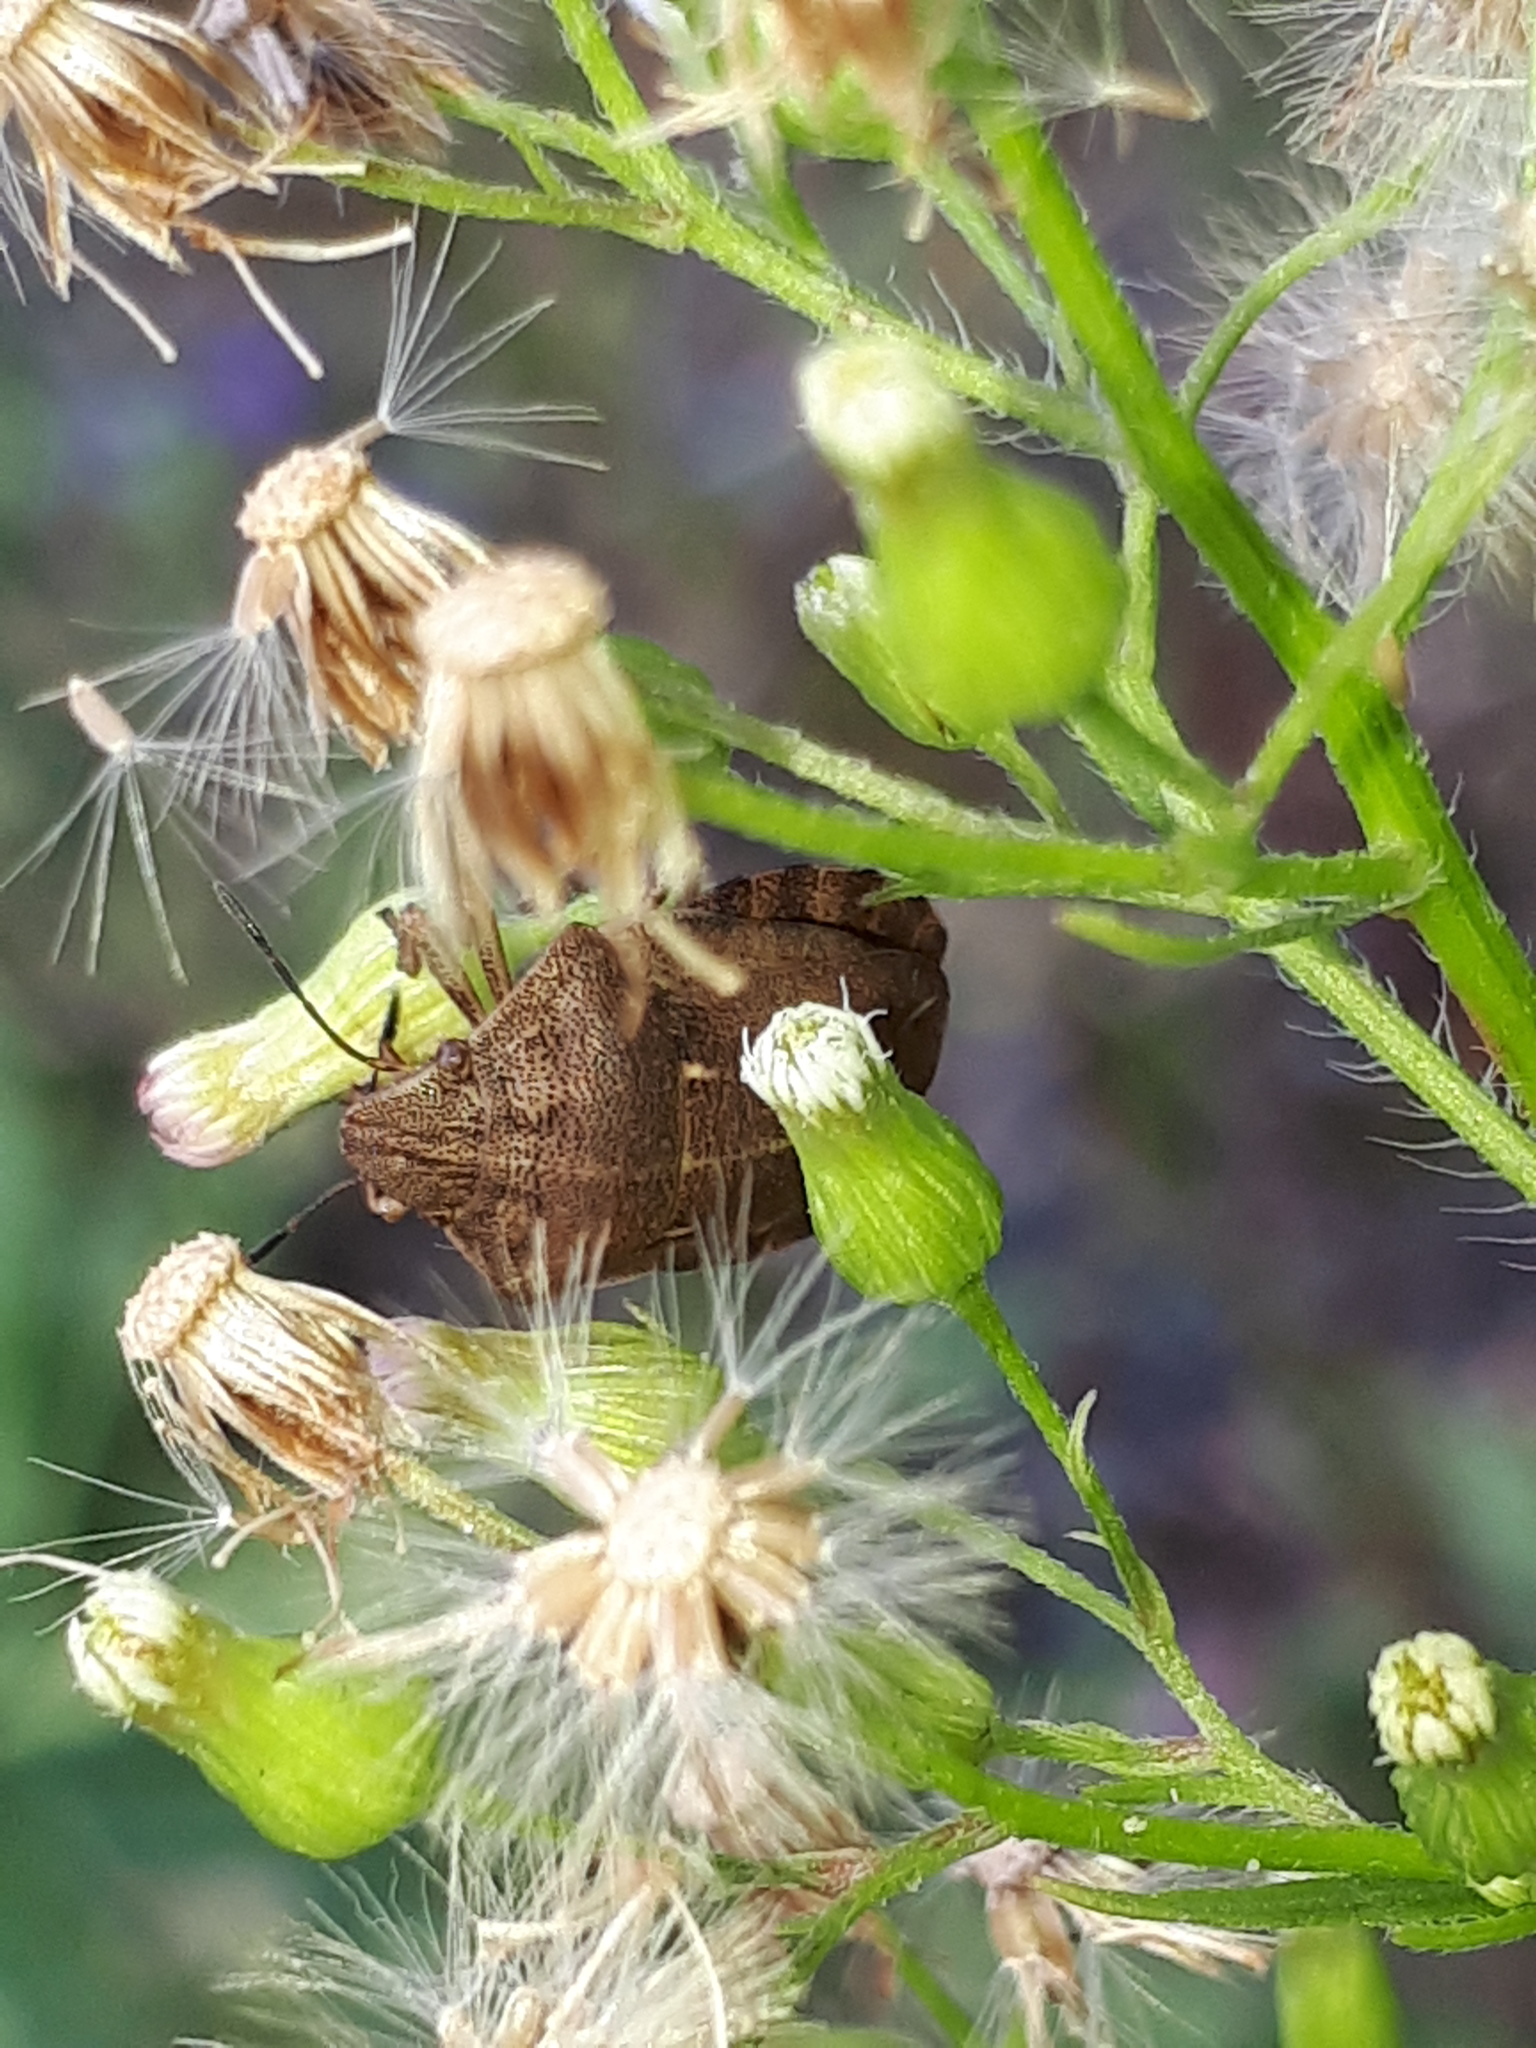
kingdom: Animalia
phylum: Arthropoda
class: Insecta
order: Hemiptera
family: Scutelleridae
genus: Eurygaster
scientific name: Eurygaster testudinaria
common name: Tortoise bug
